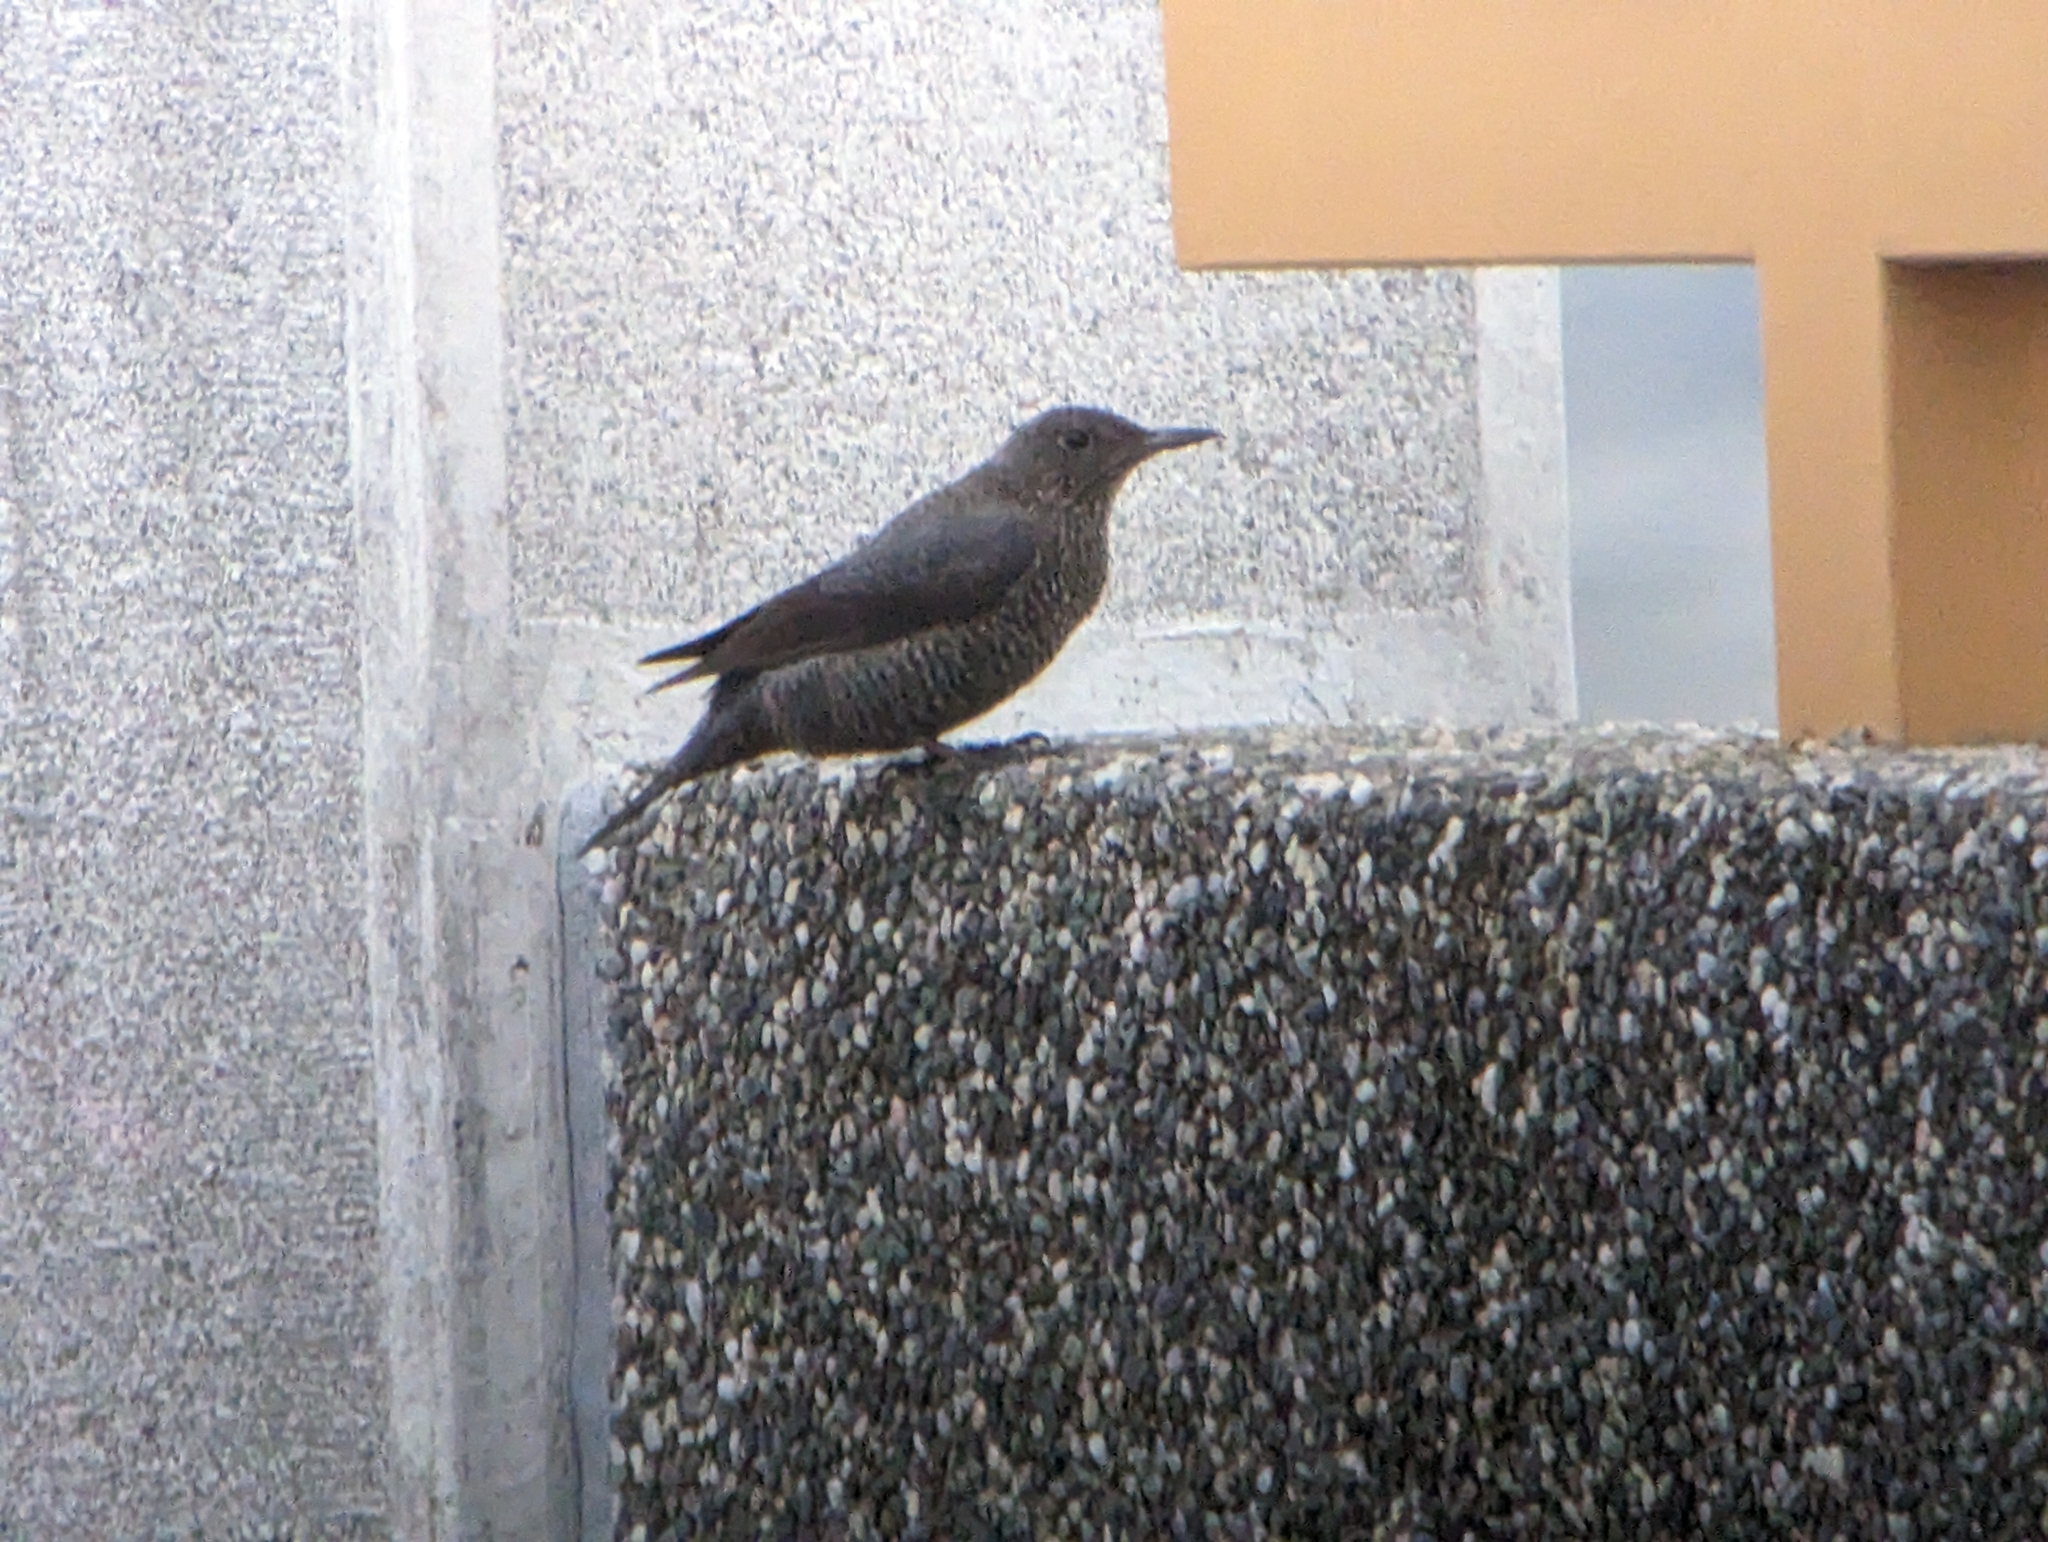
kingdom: Animalia
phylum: Chordata
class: Aves
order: Passeriformes
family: Muscicapidae
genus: Monticola
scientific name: Monticola solitarius
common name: Blue rock thrush
